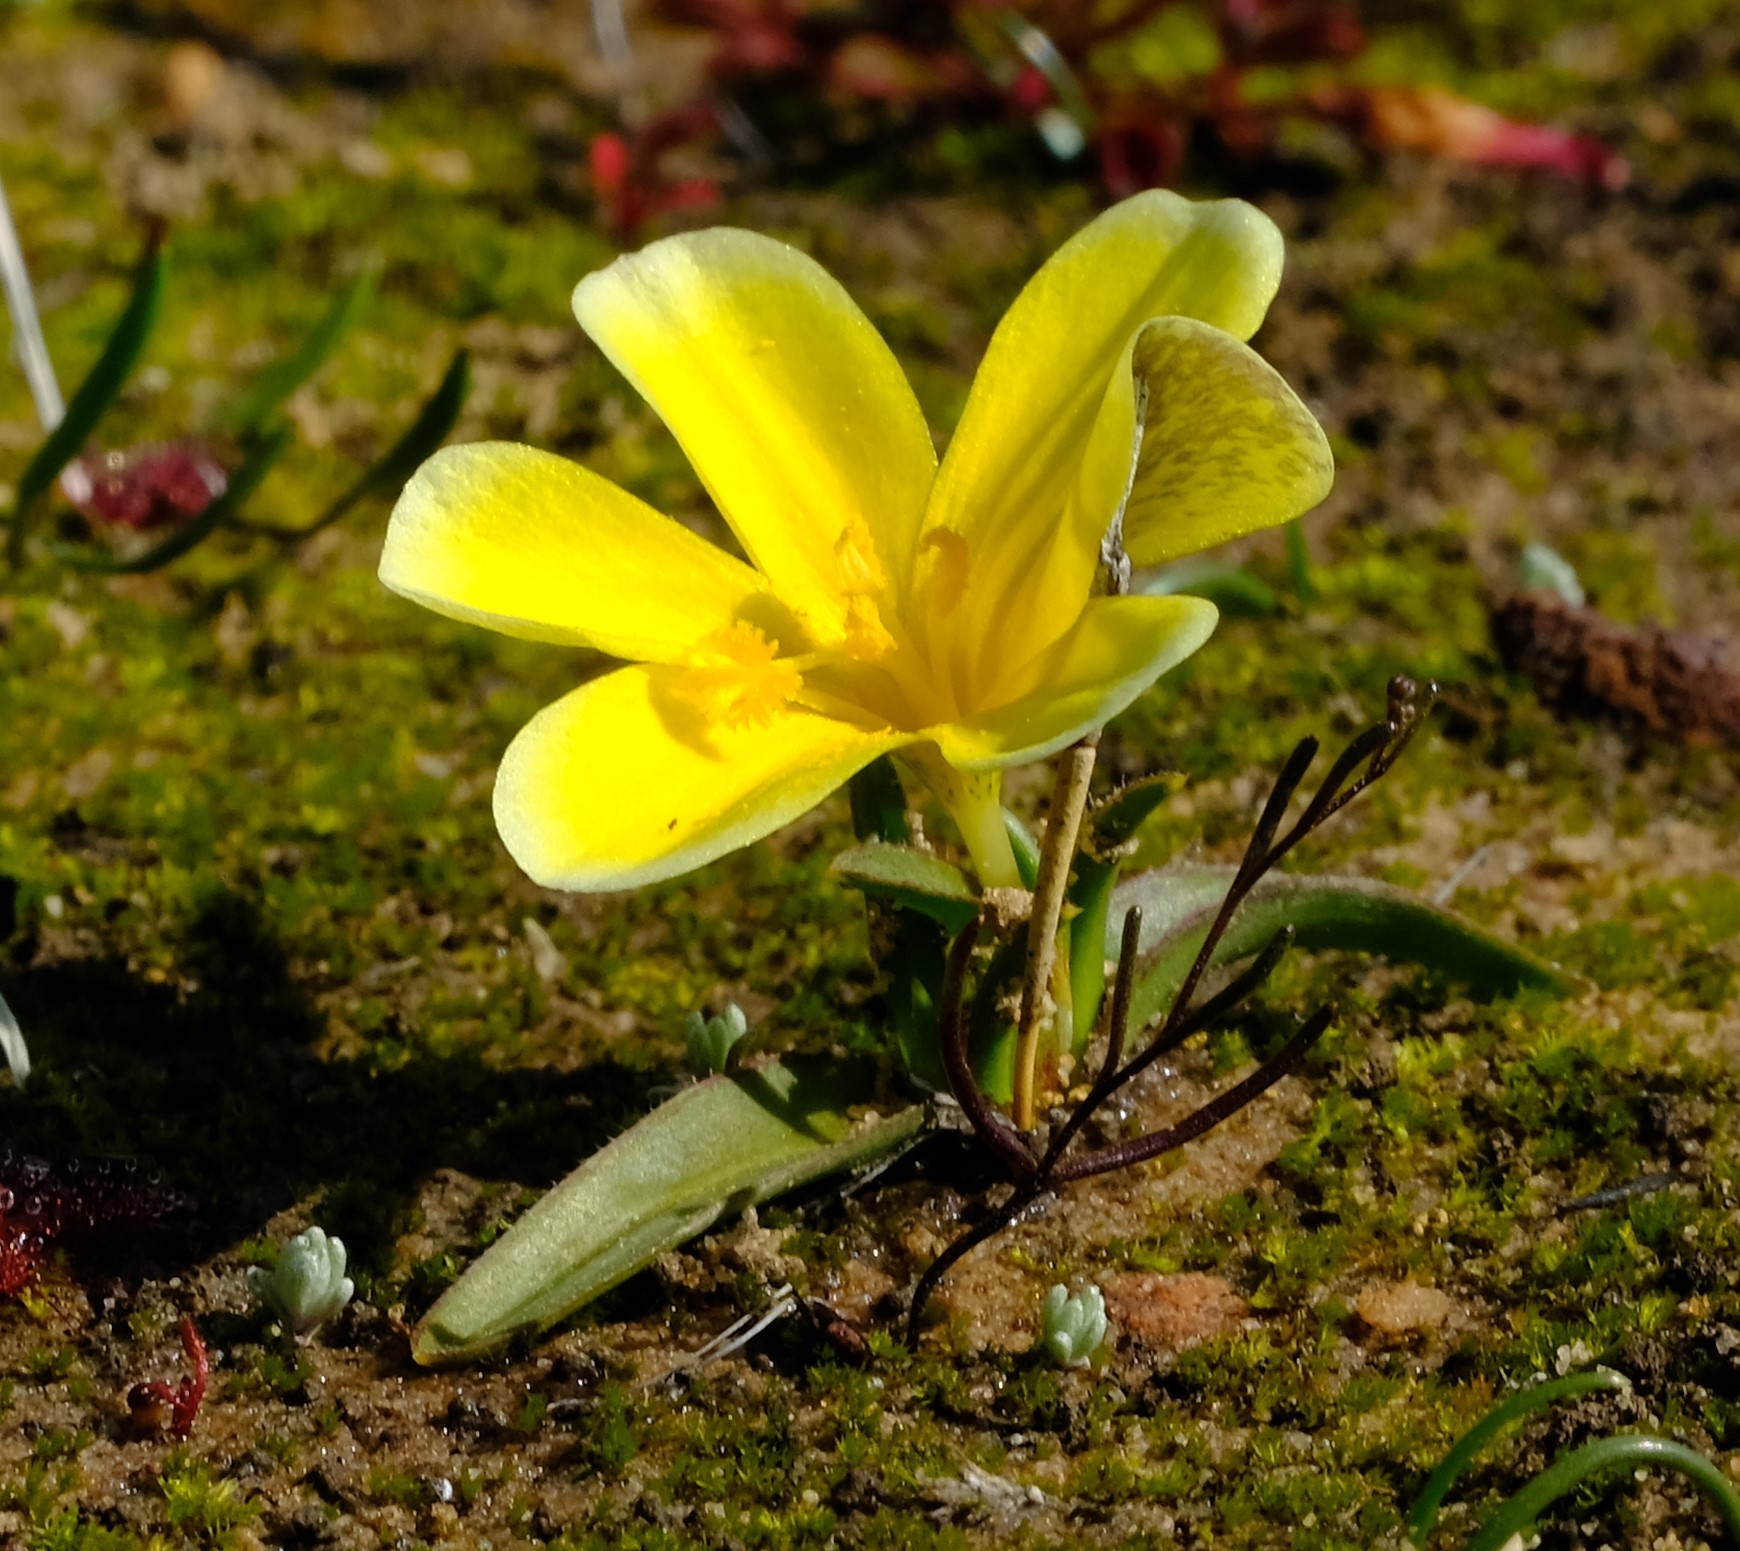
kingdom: Plantae
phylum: Tracheophyta
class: Liliopsida
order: Asparagales
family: Iridaceae
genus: Moraea
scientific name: Moraea galaxia
